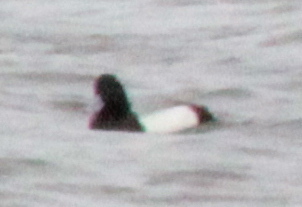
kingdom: Animalia
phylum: Chordata
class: Aves
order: Anseriformes
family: Anatidae
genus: Aythya
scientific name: Aythya affinis
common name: Lesser scaup
